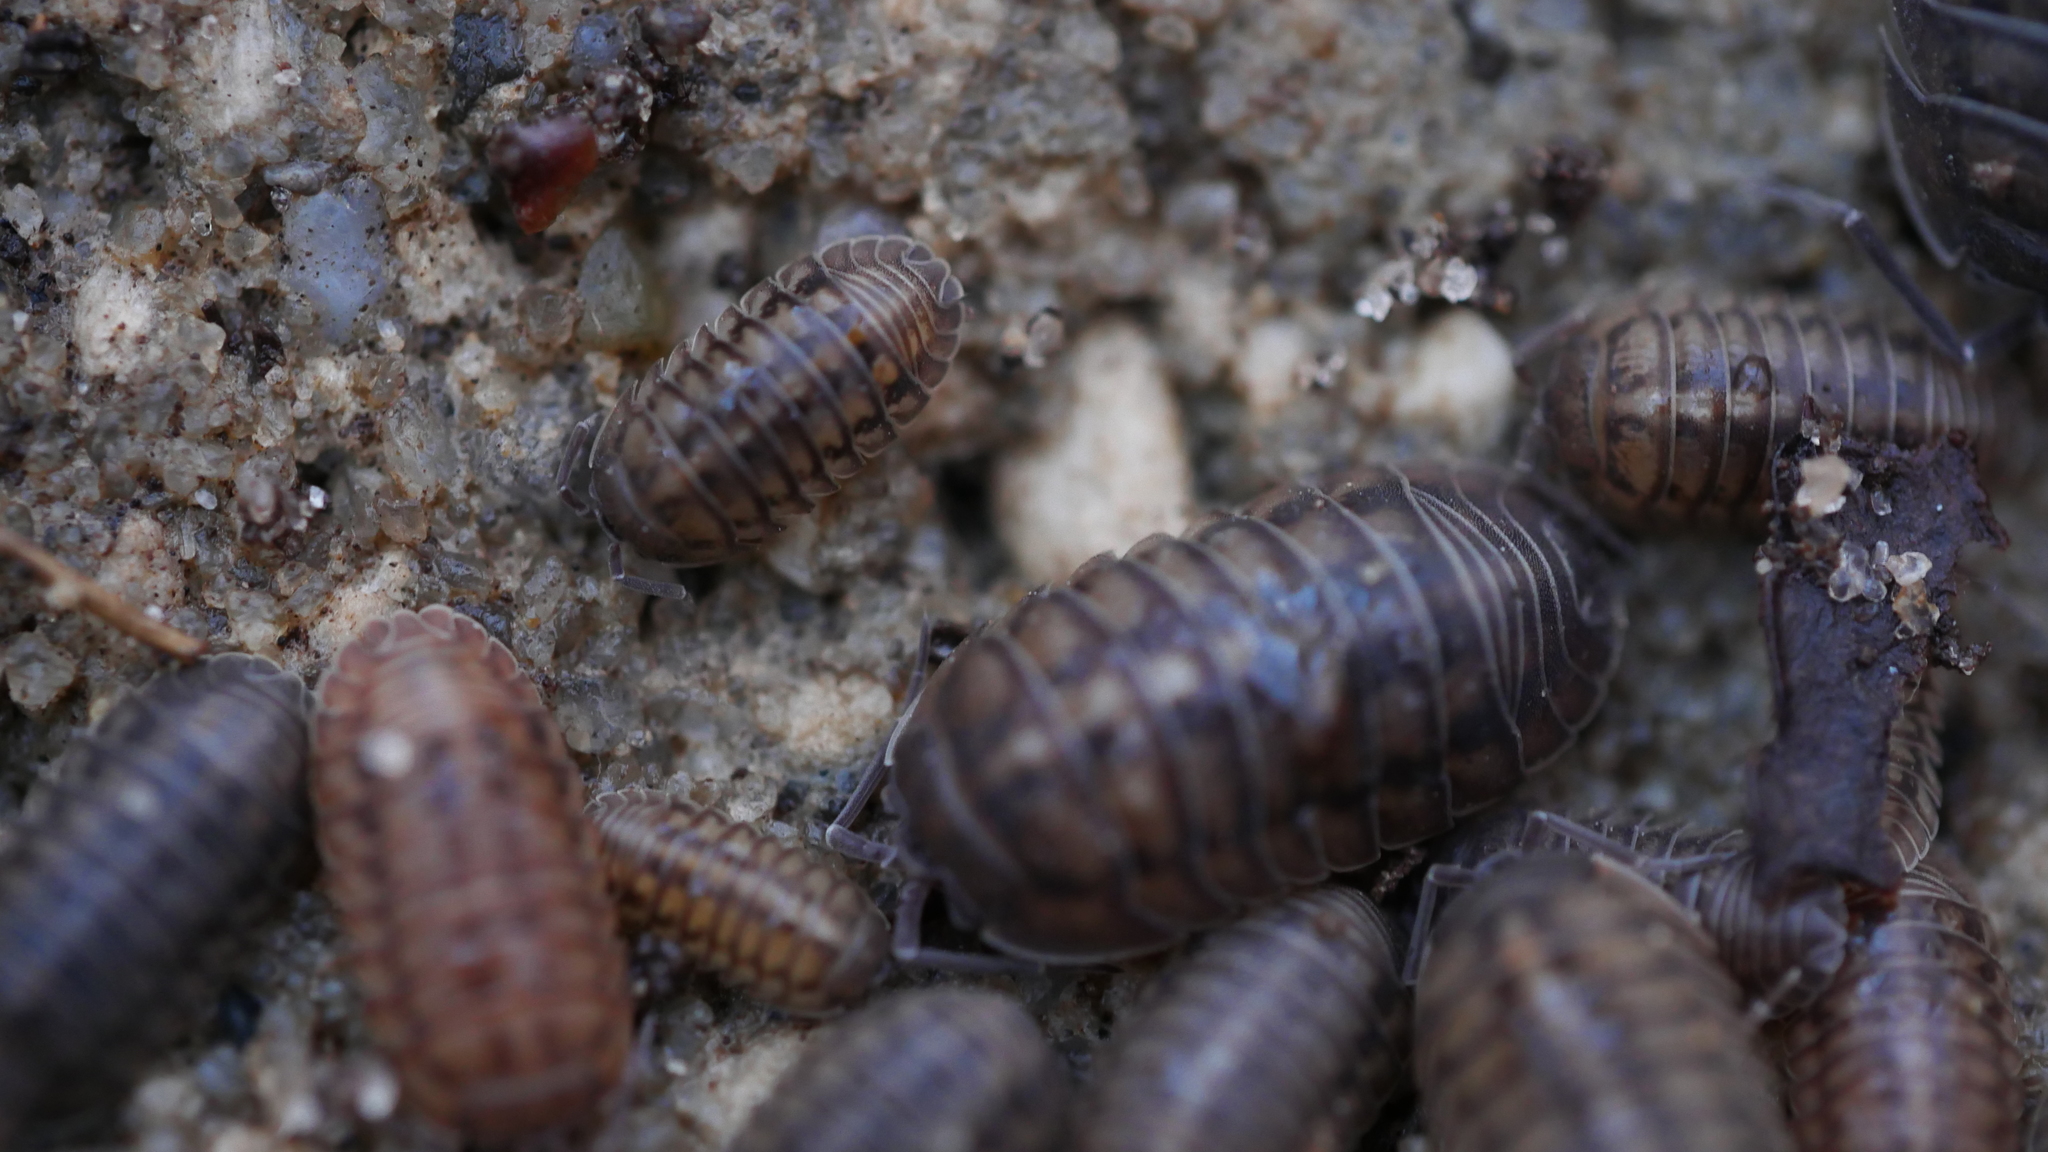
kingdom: Animalia
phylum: Arthropoda
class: Malacostraca
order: Isopoda
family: Armadillidiidae
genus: Armadillidium
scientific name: Armadillidium nasatum
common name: Isopod
